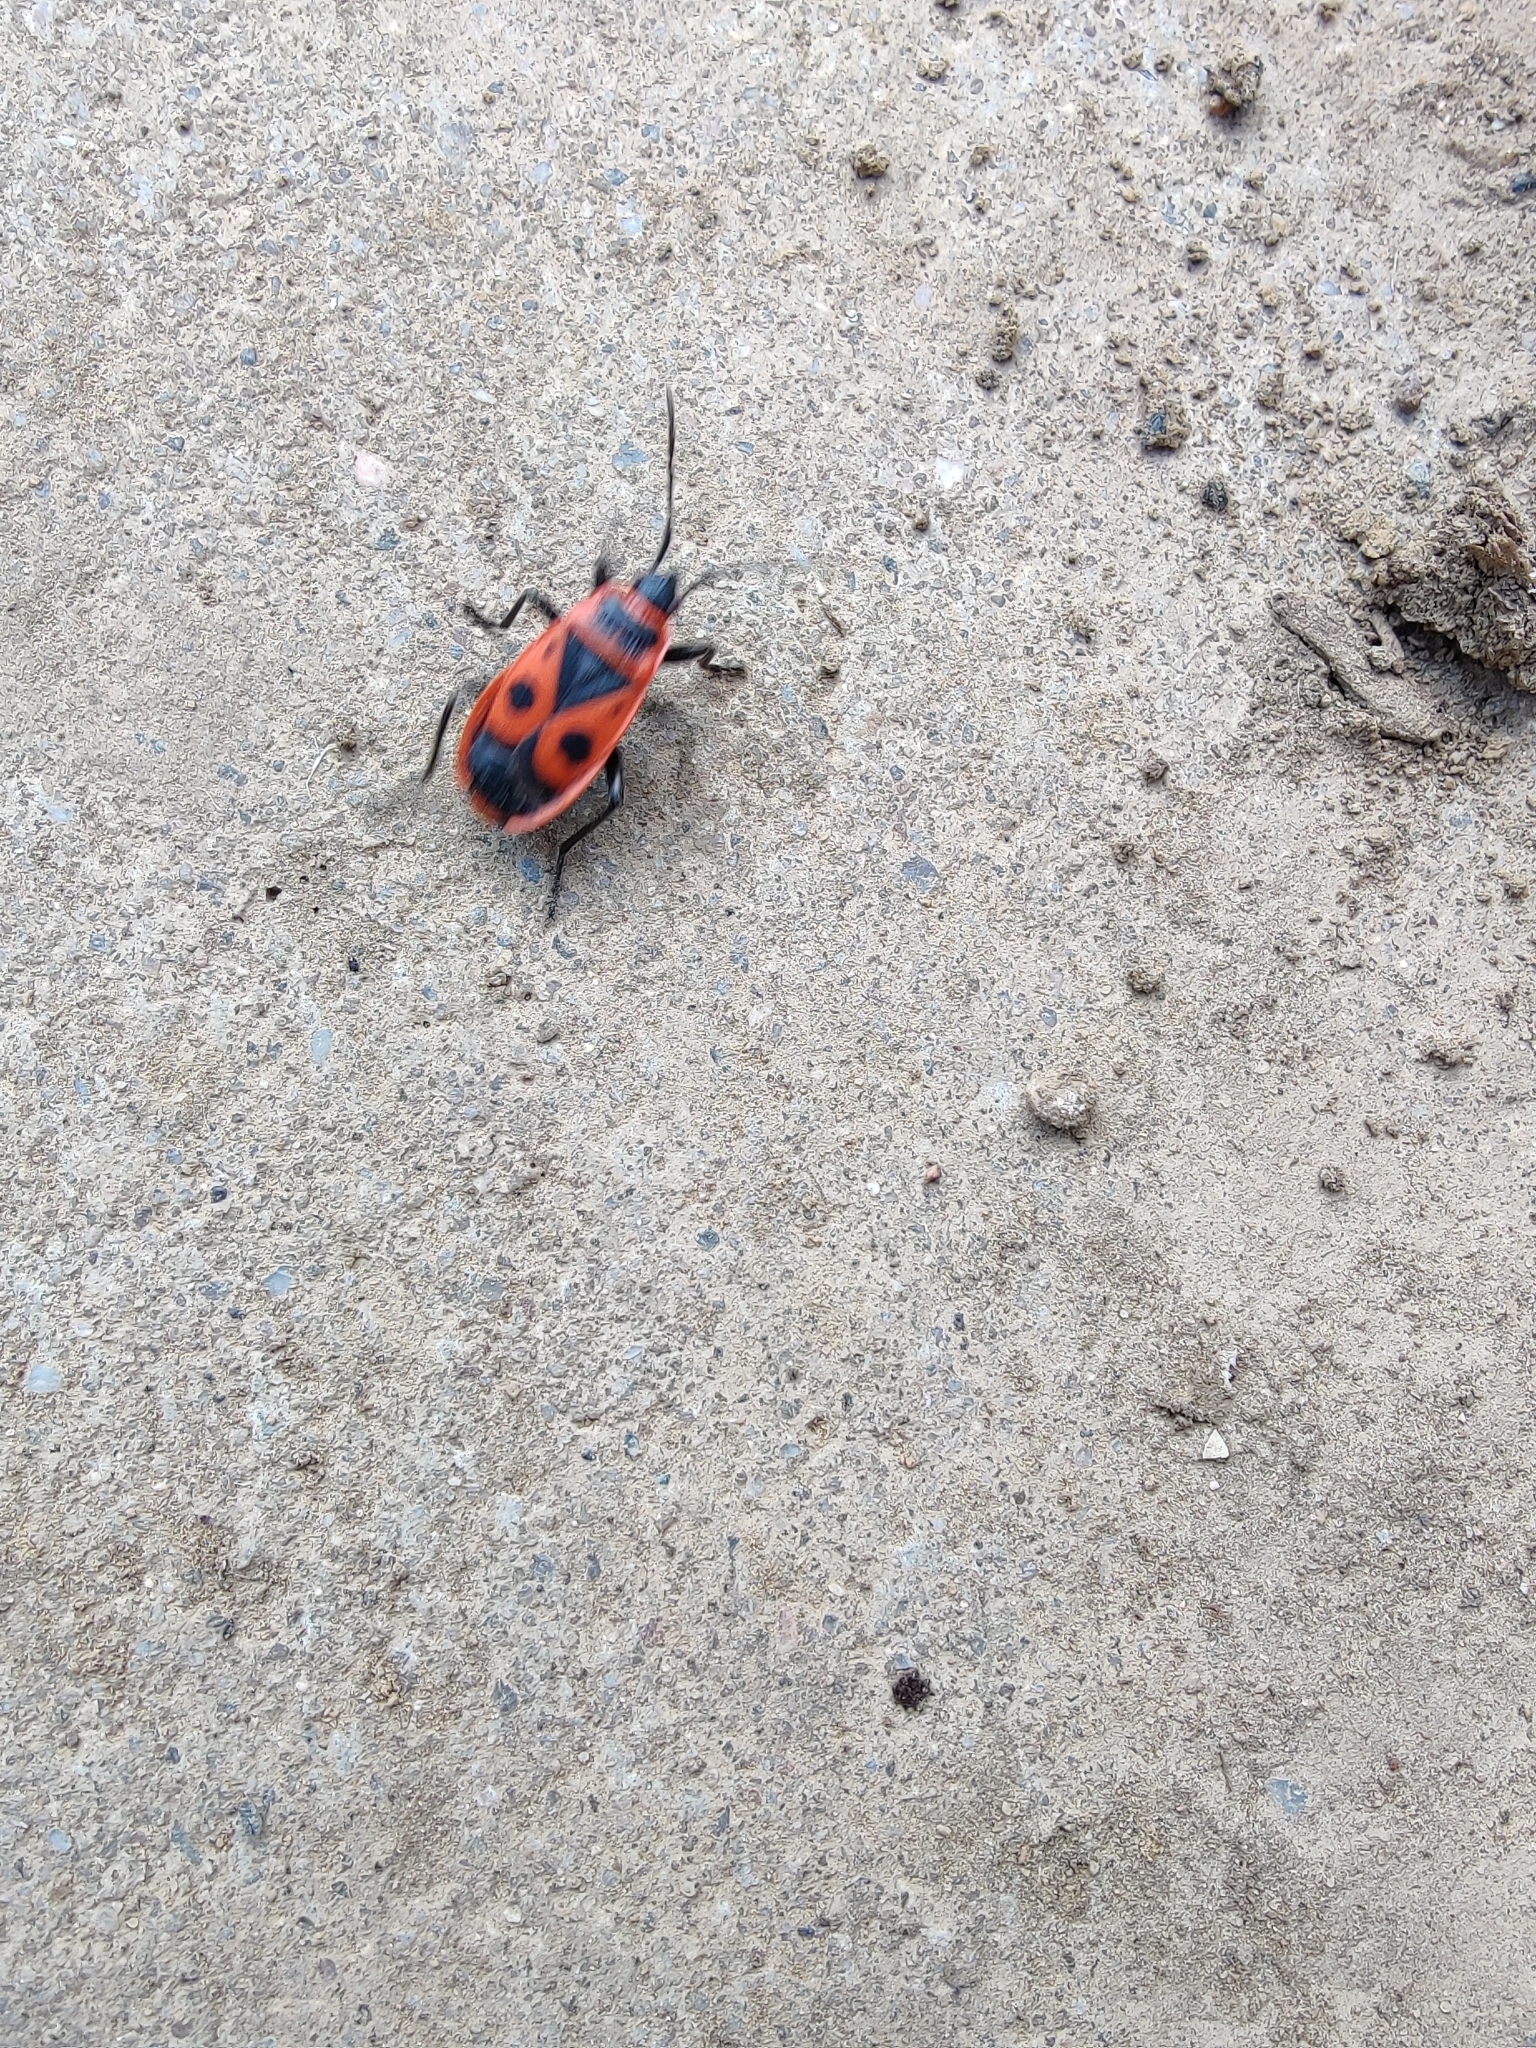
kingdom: Animalia
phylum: Arthropoda
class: Insecta
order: Hemiptera
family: Pyrrhocoridae
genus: Pyrrhocoris
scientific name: Pyrrhocoris apterus
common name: Firebug
